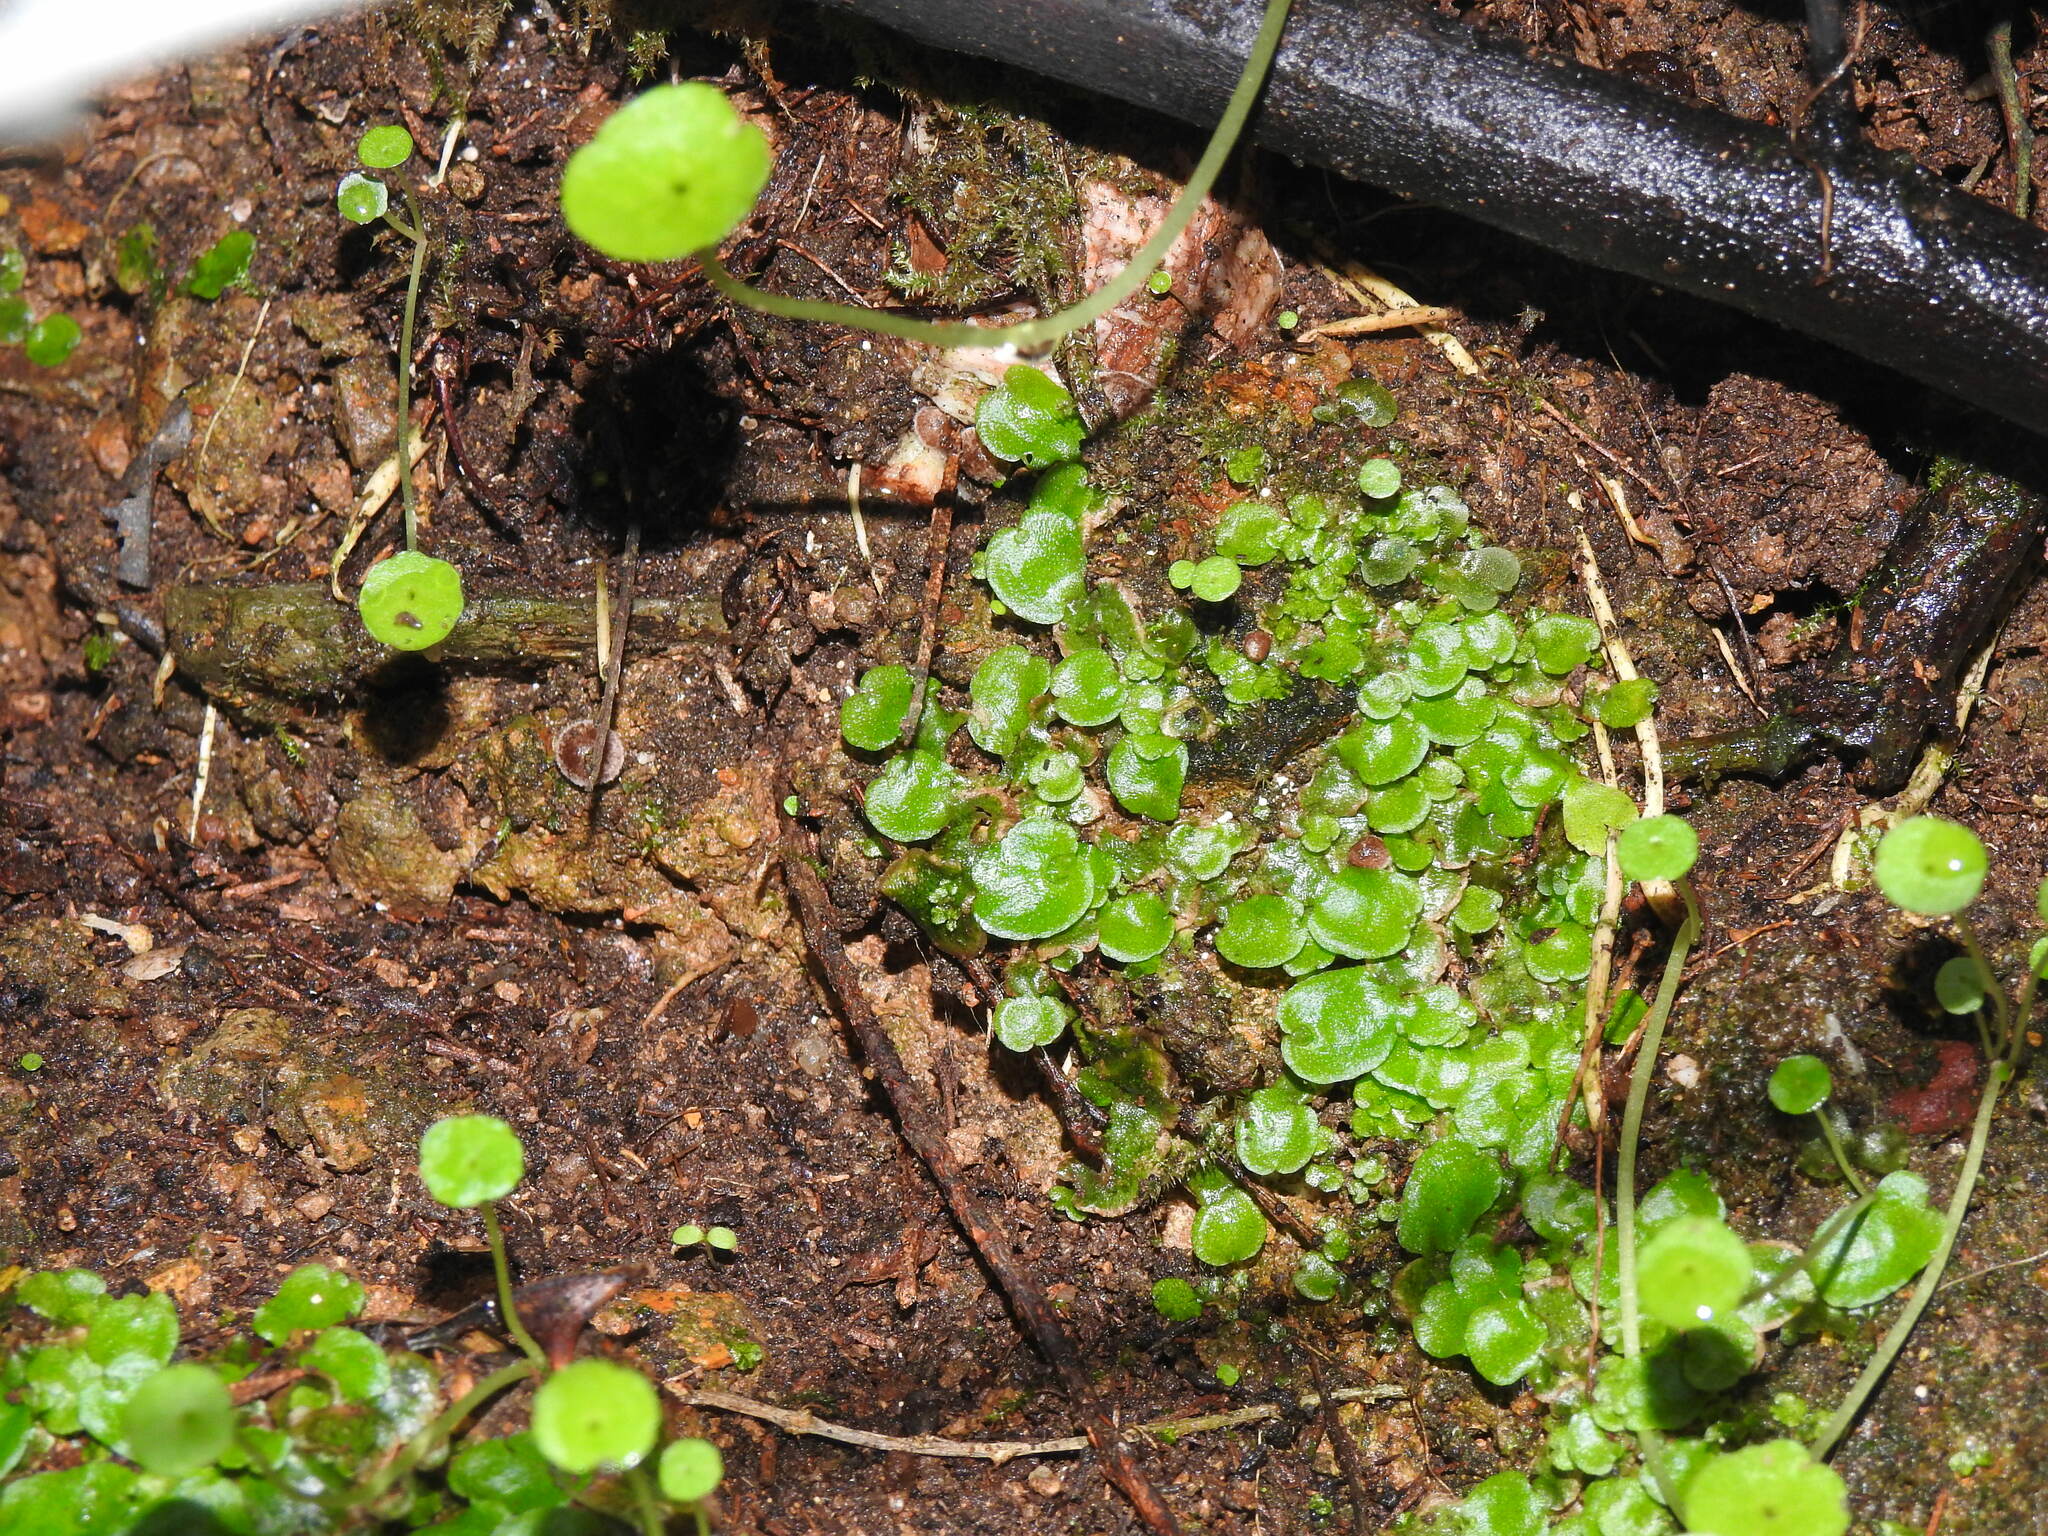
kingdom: Plantae
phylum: Marchantiophyta
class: Marchantiopsida
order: Lunulariales
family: Lunulariaceae
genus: Lunularia
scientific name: Lunularia cruciata
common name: Crescent-cup liverwort
